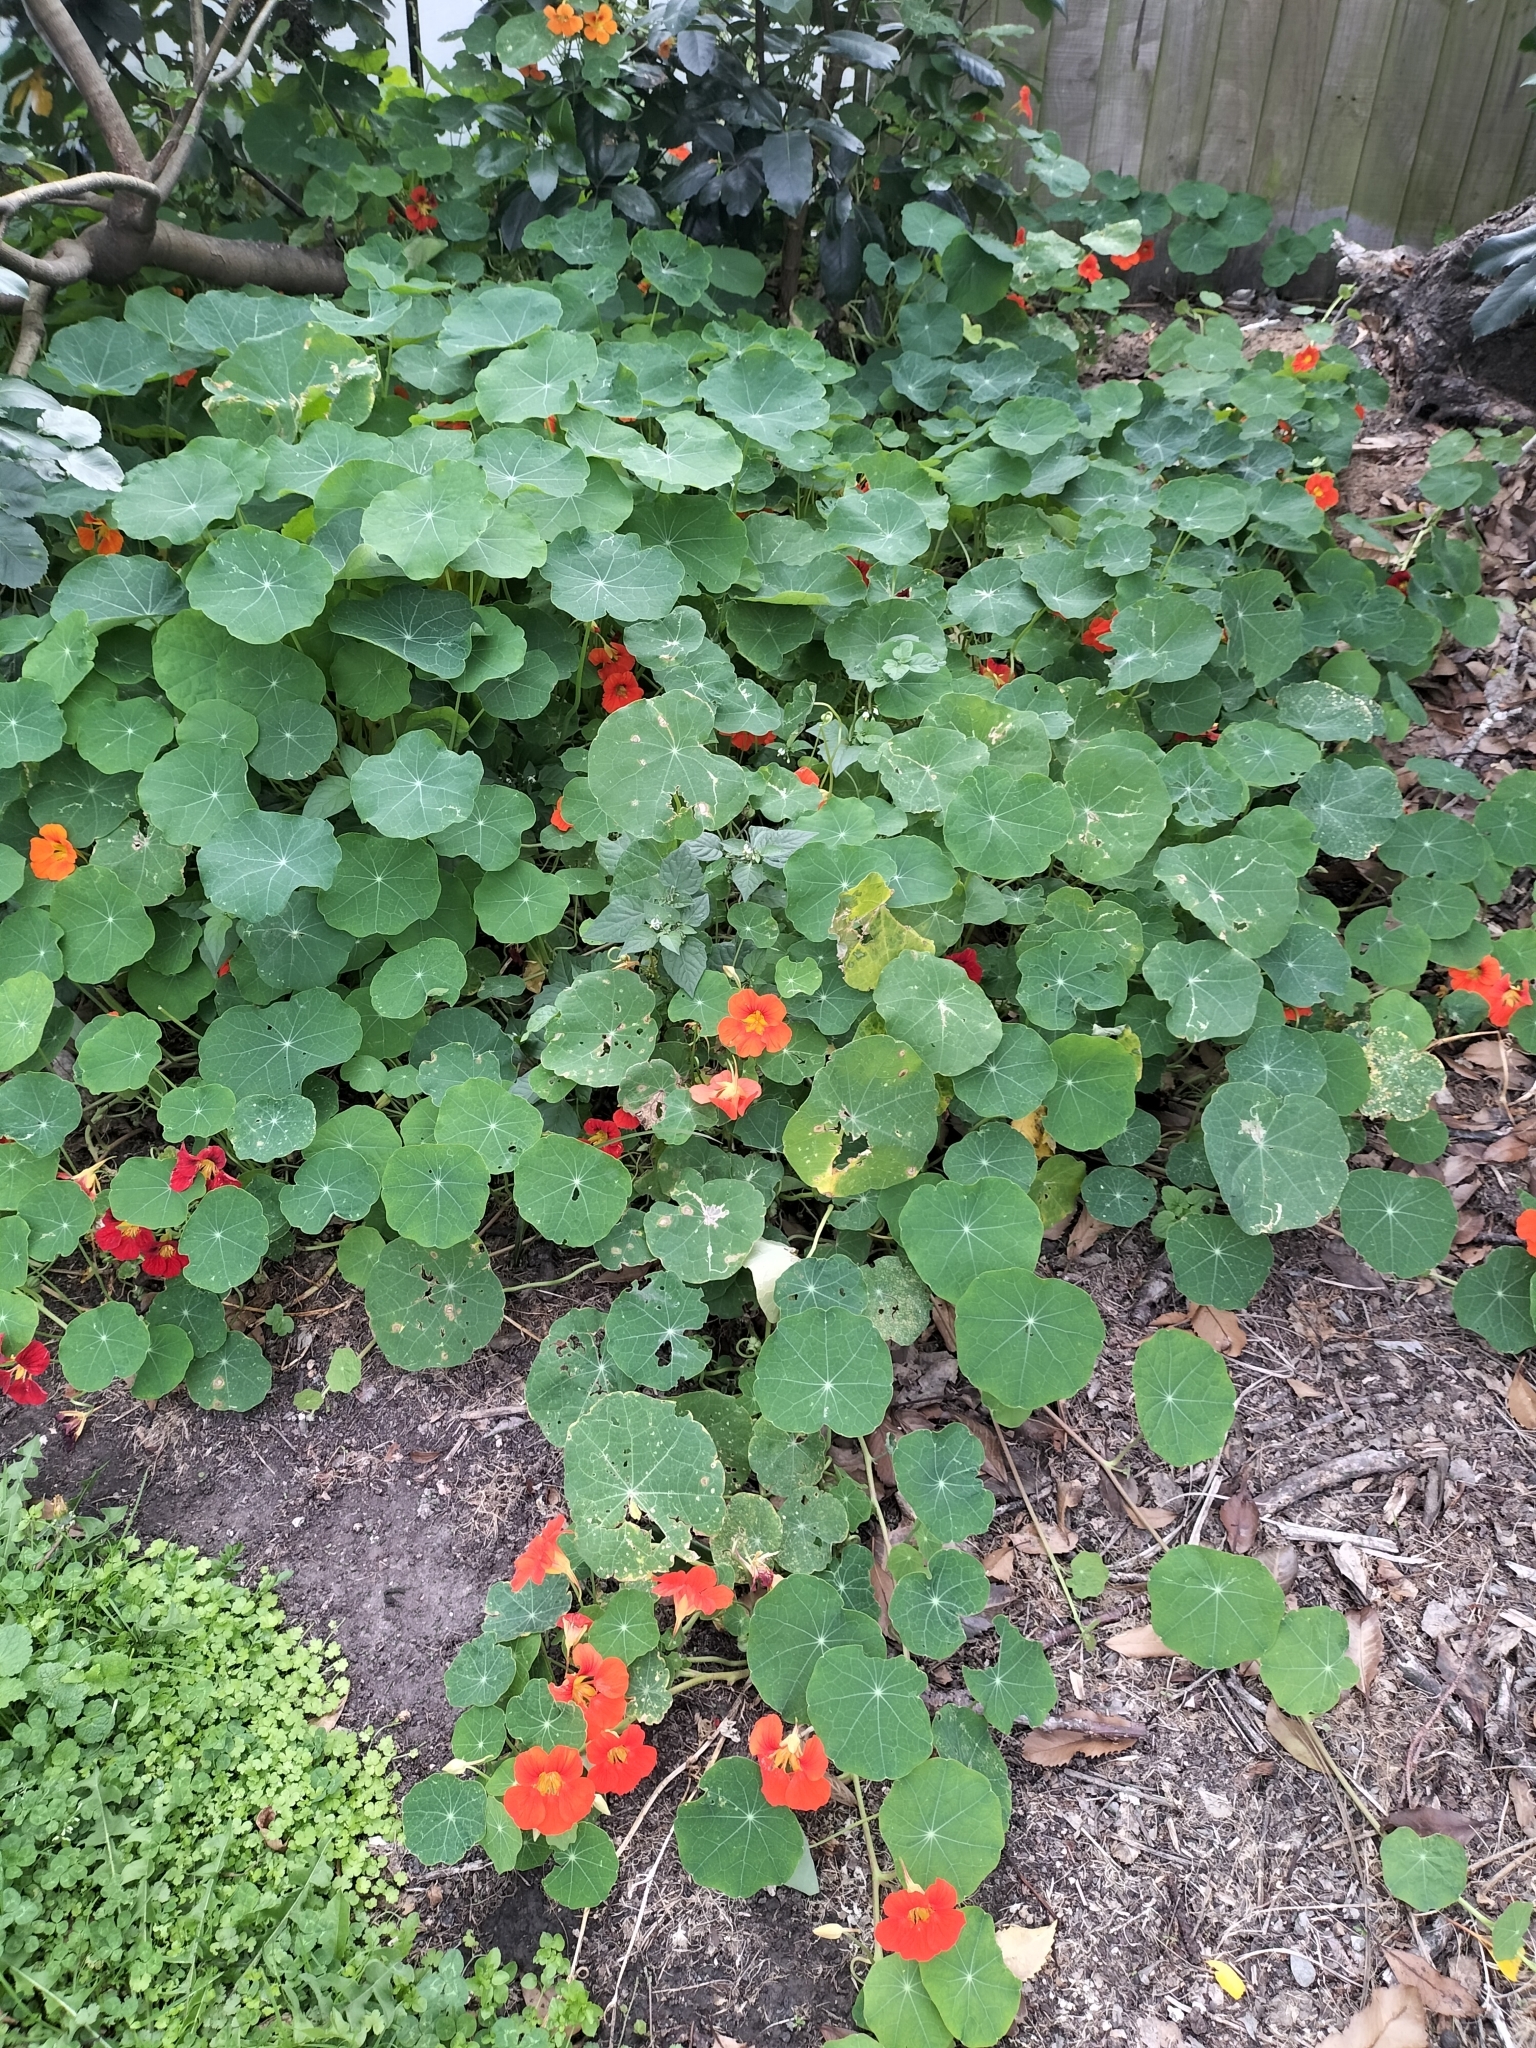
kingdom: Plantae
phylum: Tracheophyta
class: Magnoliopsida
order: Brassicales
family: Tropaeolaceae
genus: Tropaeolum
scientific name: Tropaeolum majus
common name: Nasturtium
